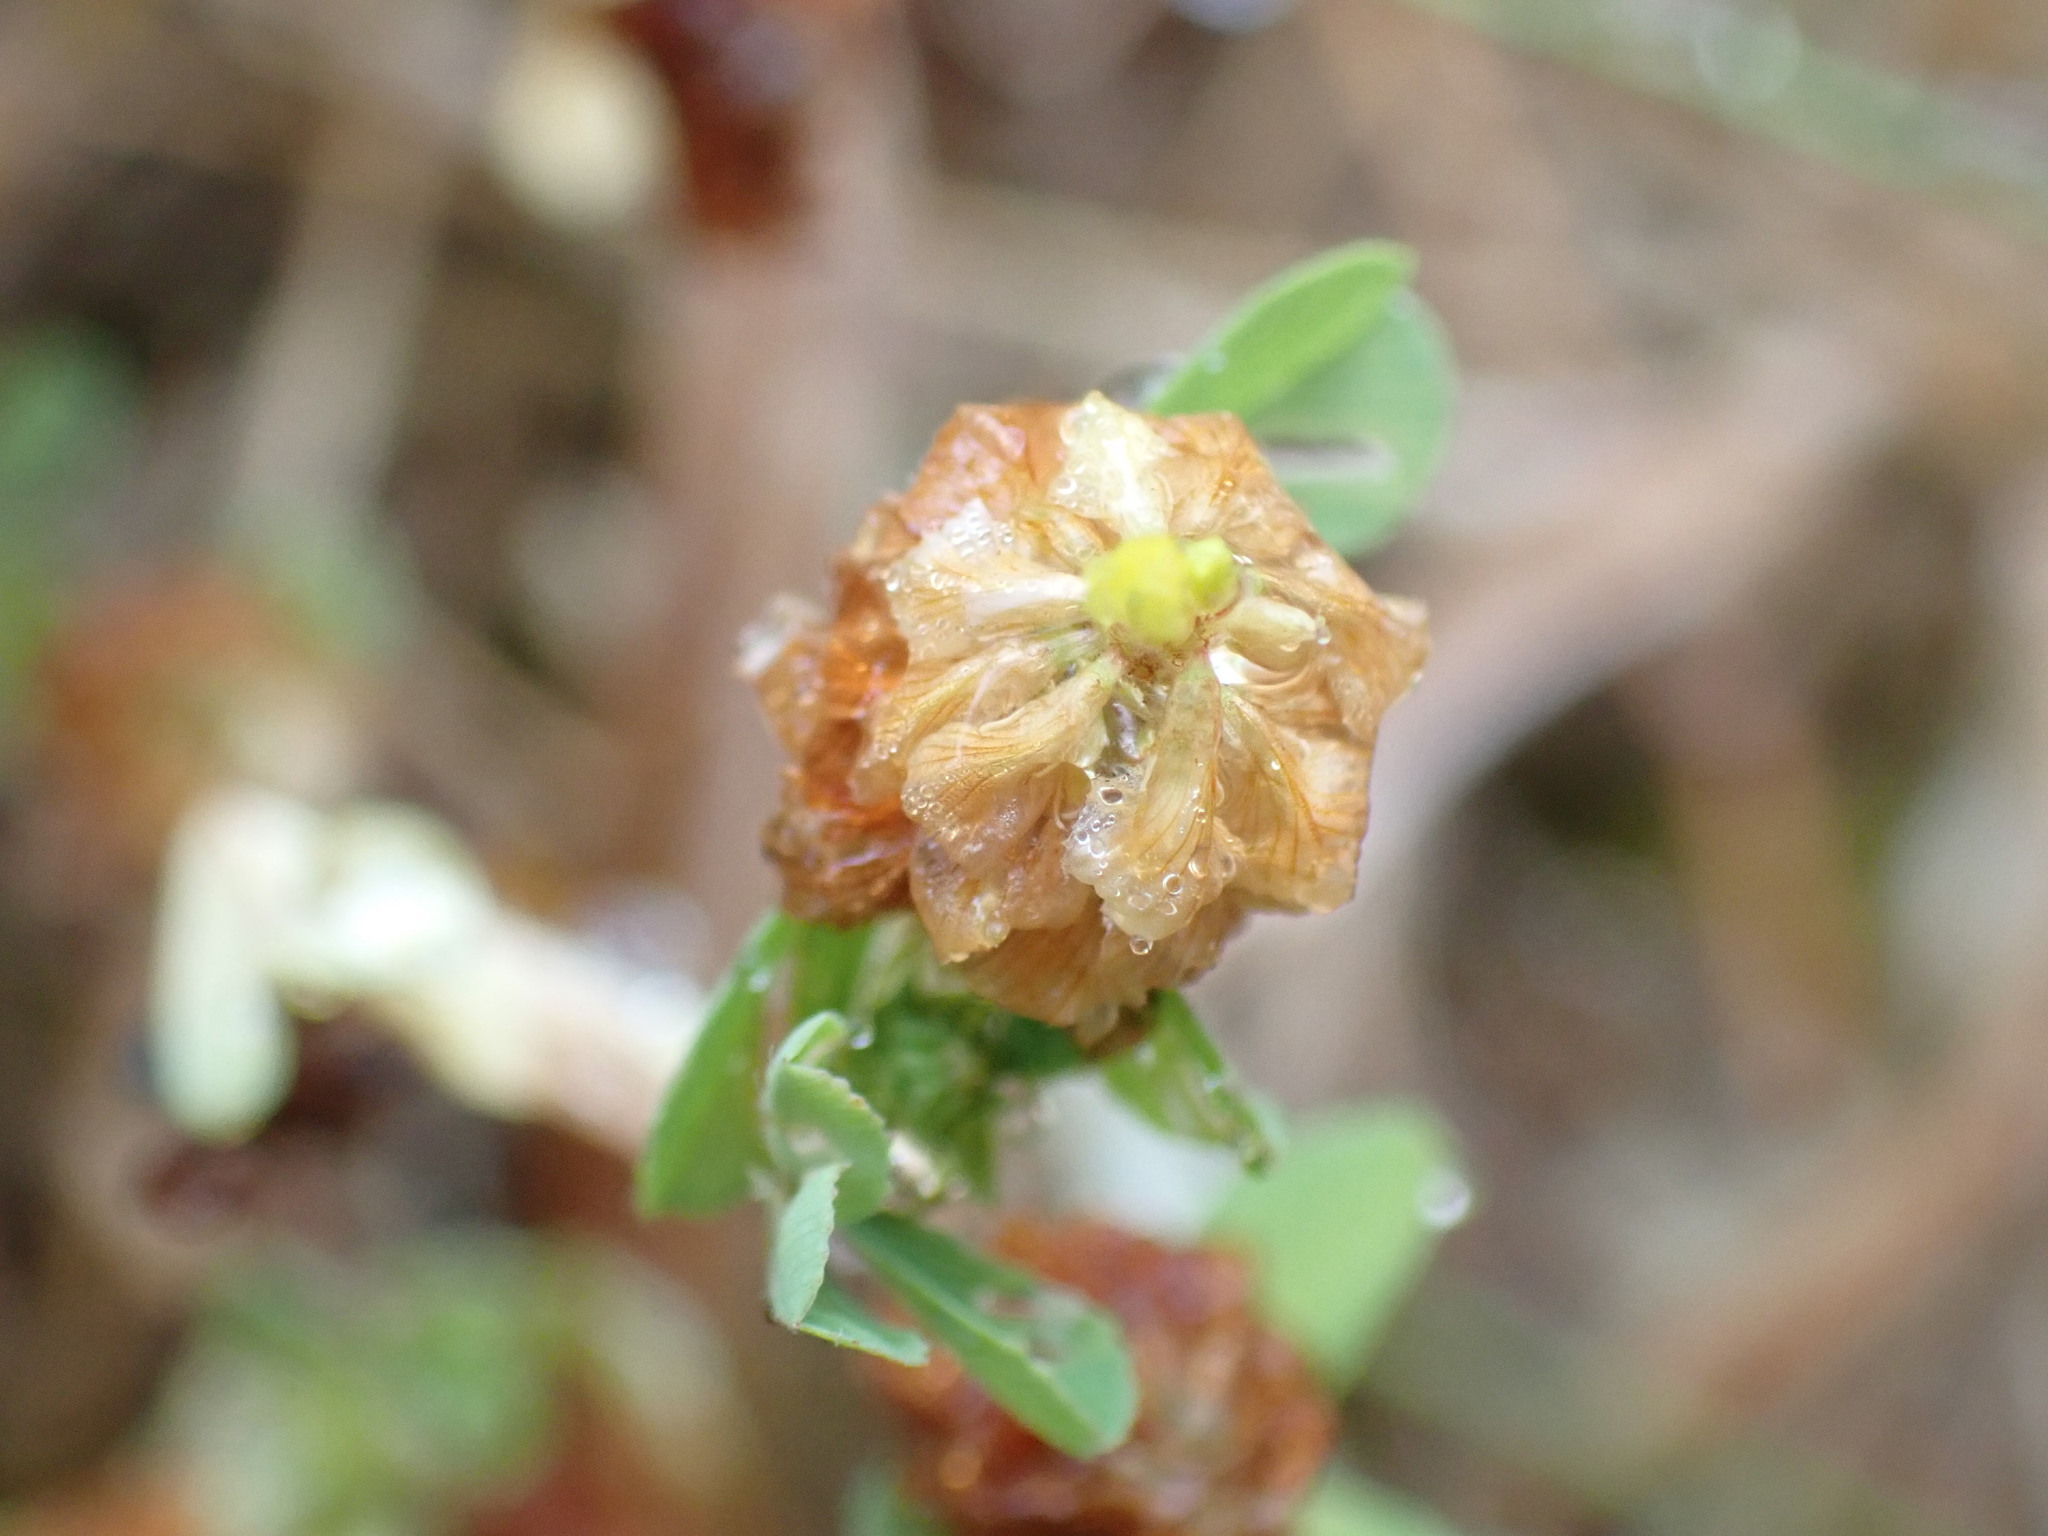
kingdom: Plantae
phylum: Tracheophyta
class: Magnoliopsida
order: Fabales
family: Fabaceae
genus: Trifolium
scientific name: Trifolium campestre
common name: Field clover
